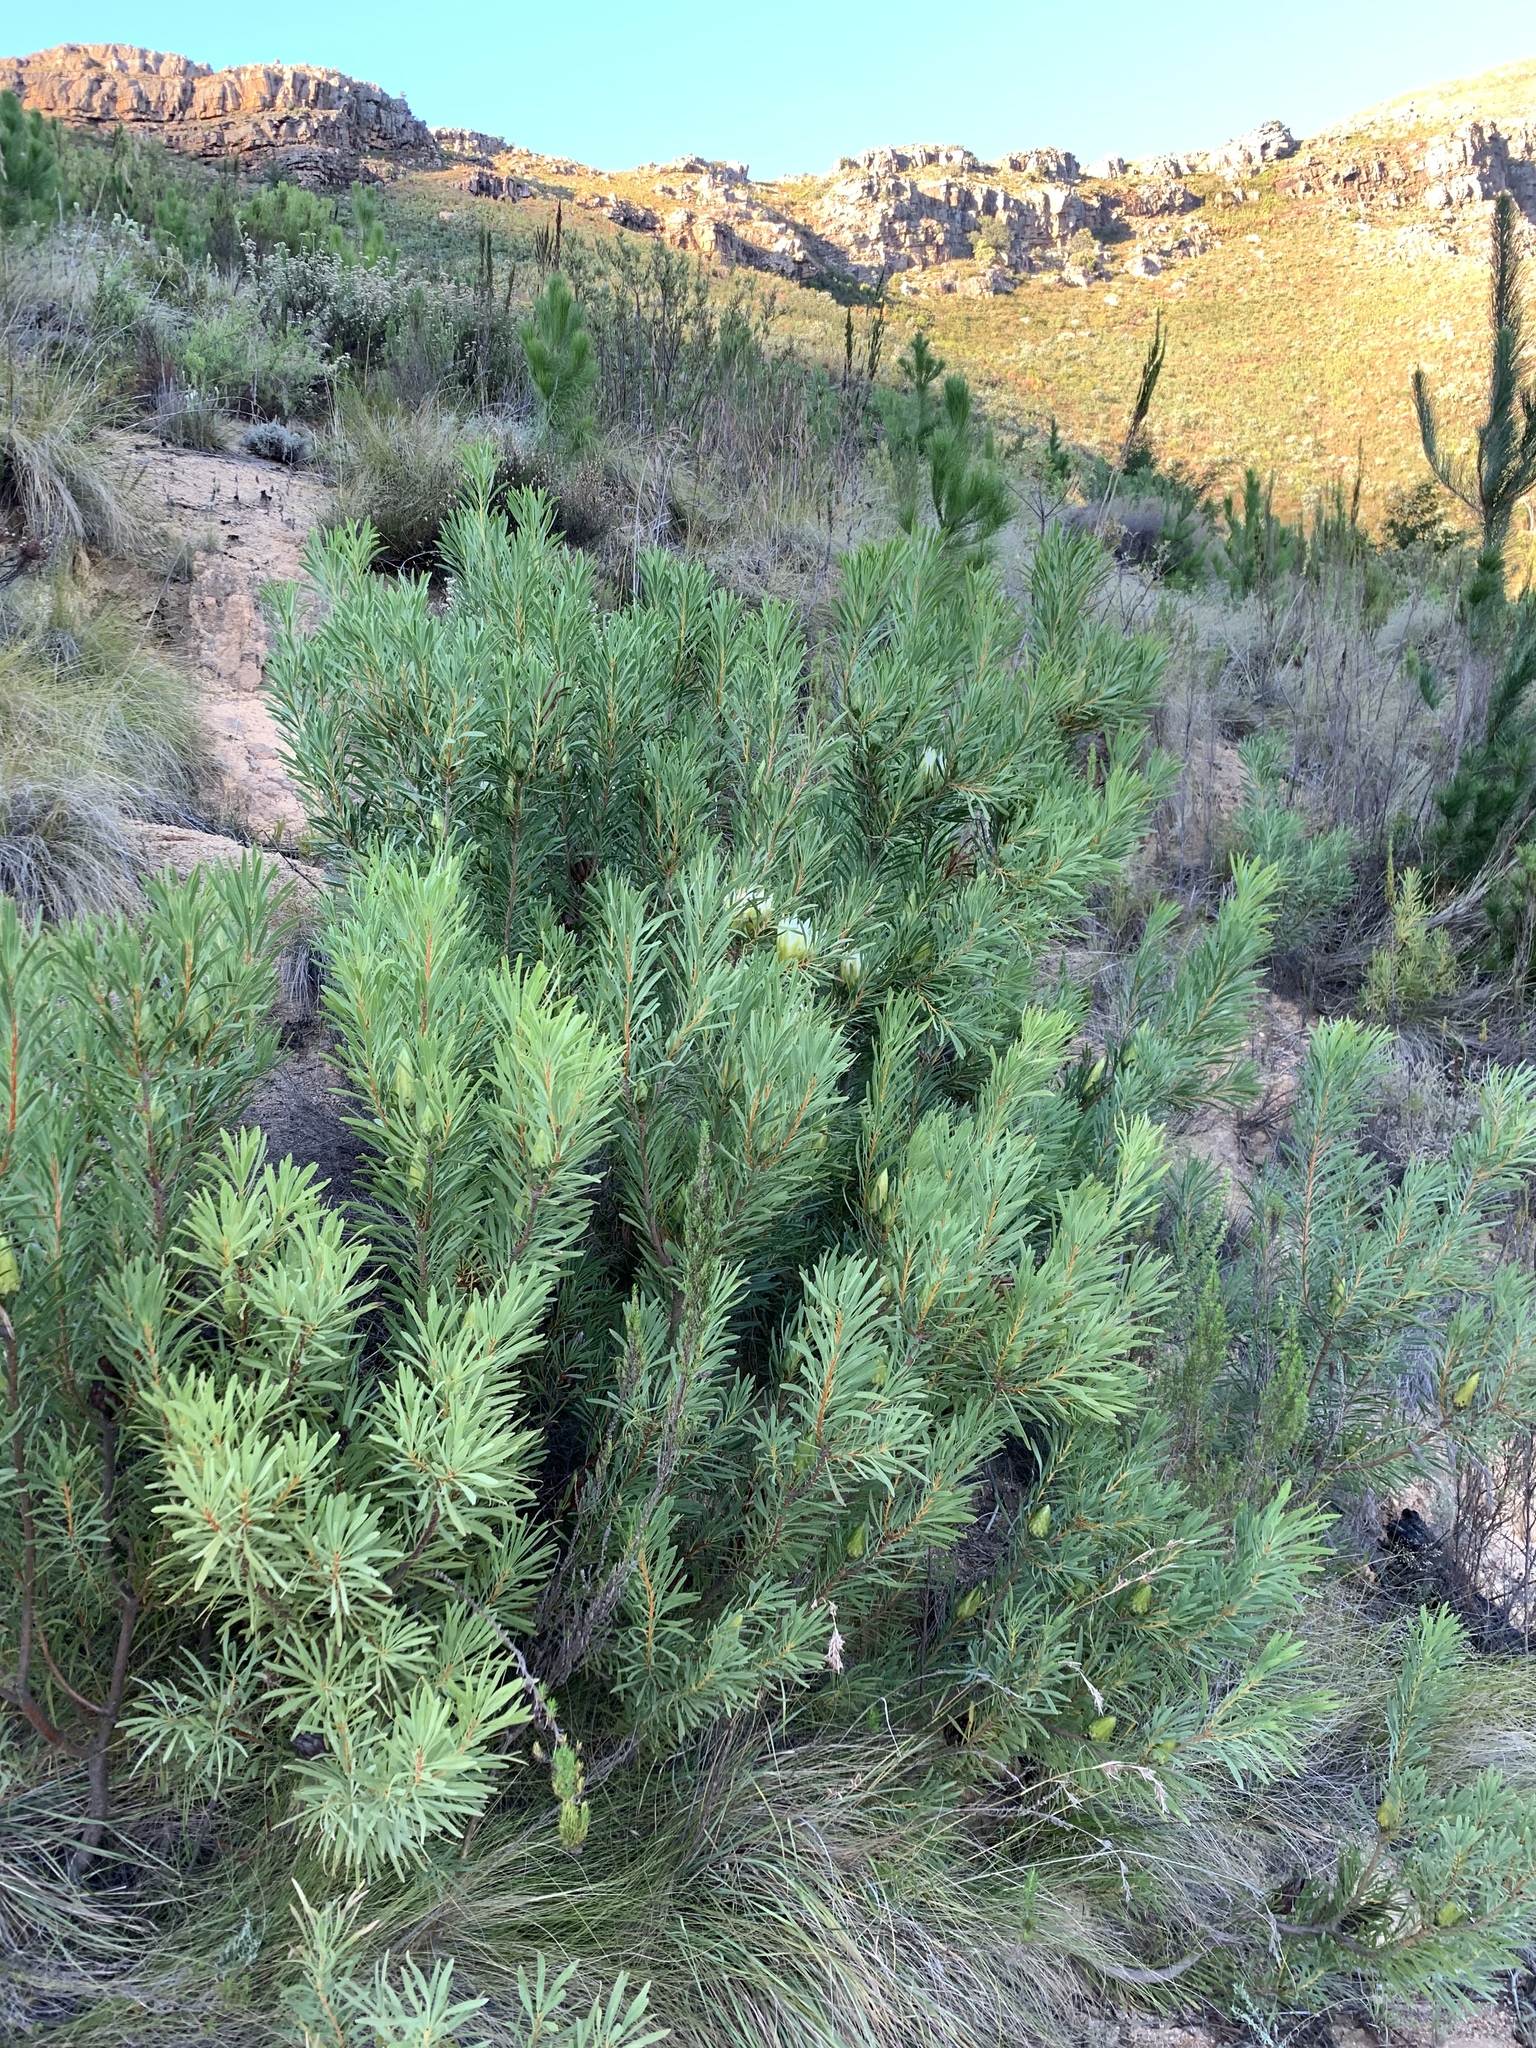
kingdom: Plantae
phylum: Tracheophyta
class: Magnoliopsida
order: Proteales
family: Proteaceae
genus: Protea
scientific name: Protea repens
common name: Sugarbush
